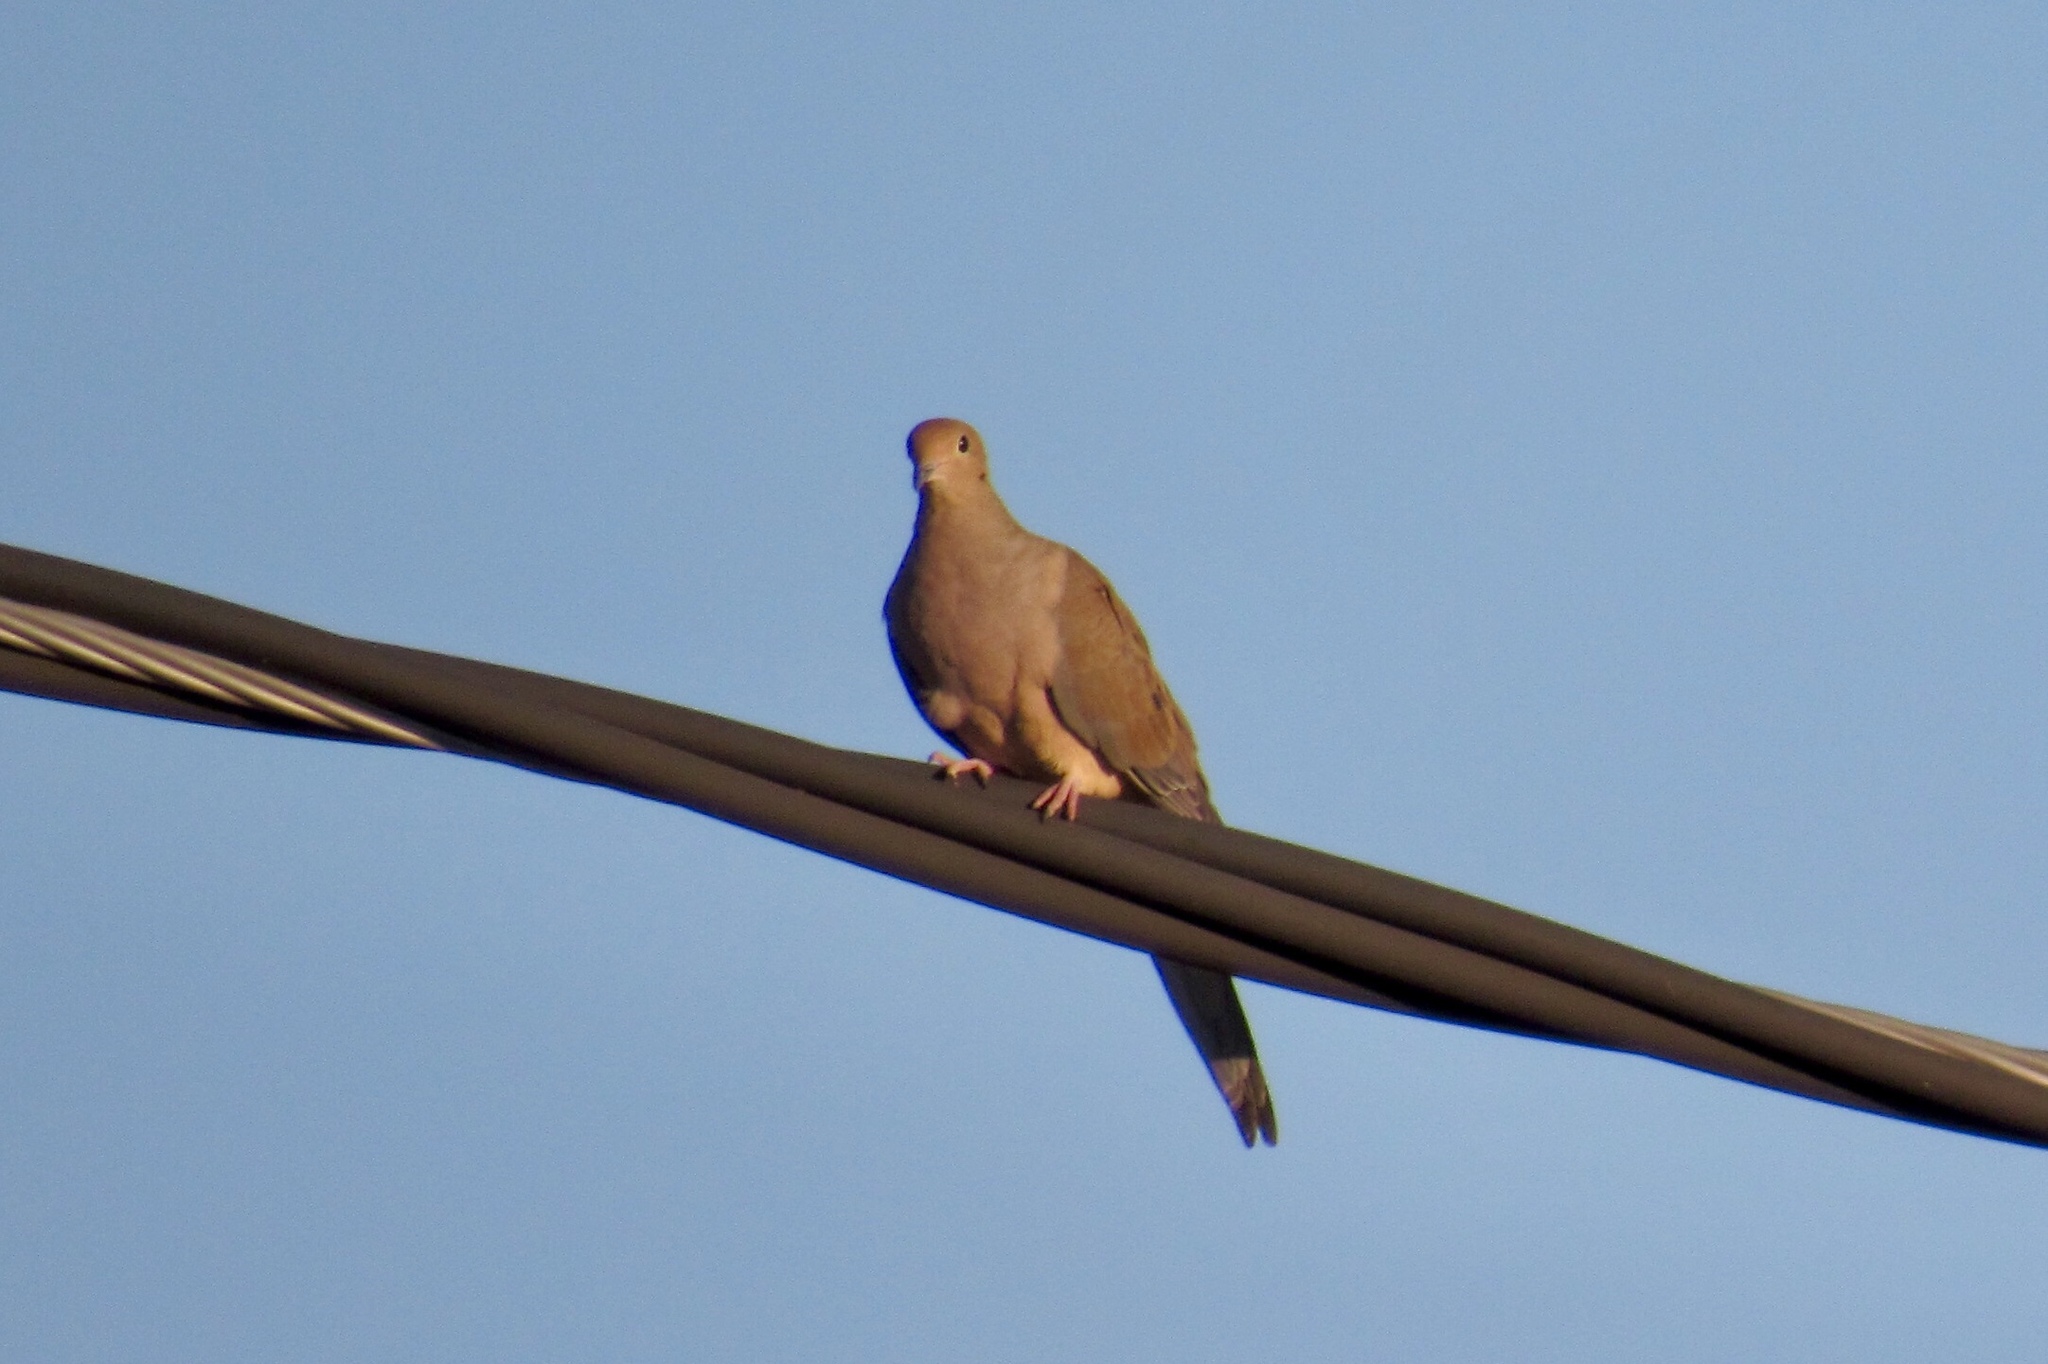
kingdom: Animalia
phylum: Chordata
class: Aves
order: Columbiformes
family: Columbidae
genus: Zenaida
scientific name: Zenaida macroura
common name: Mourning dove
